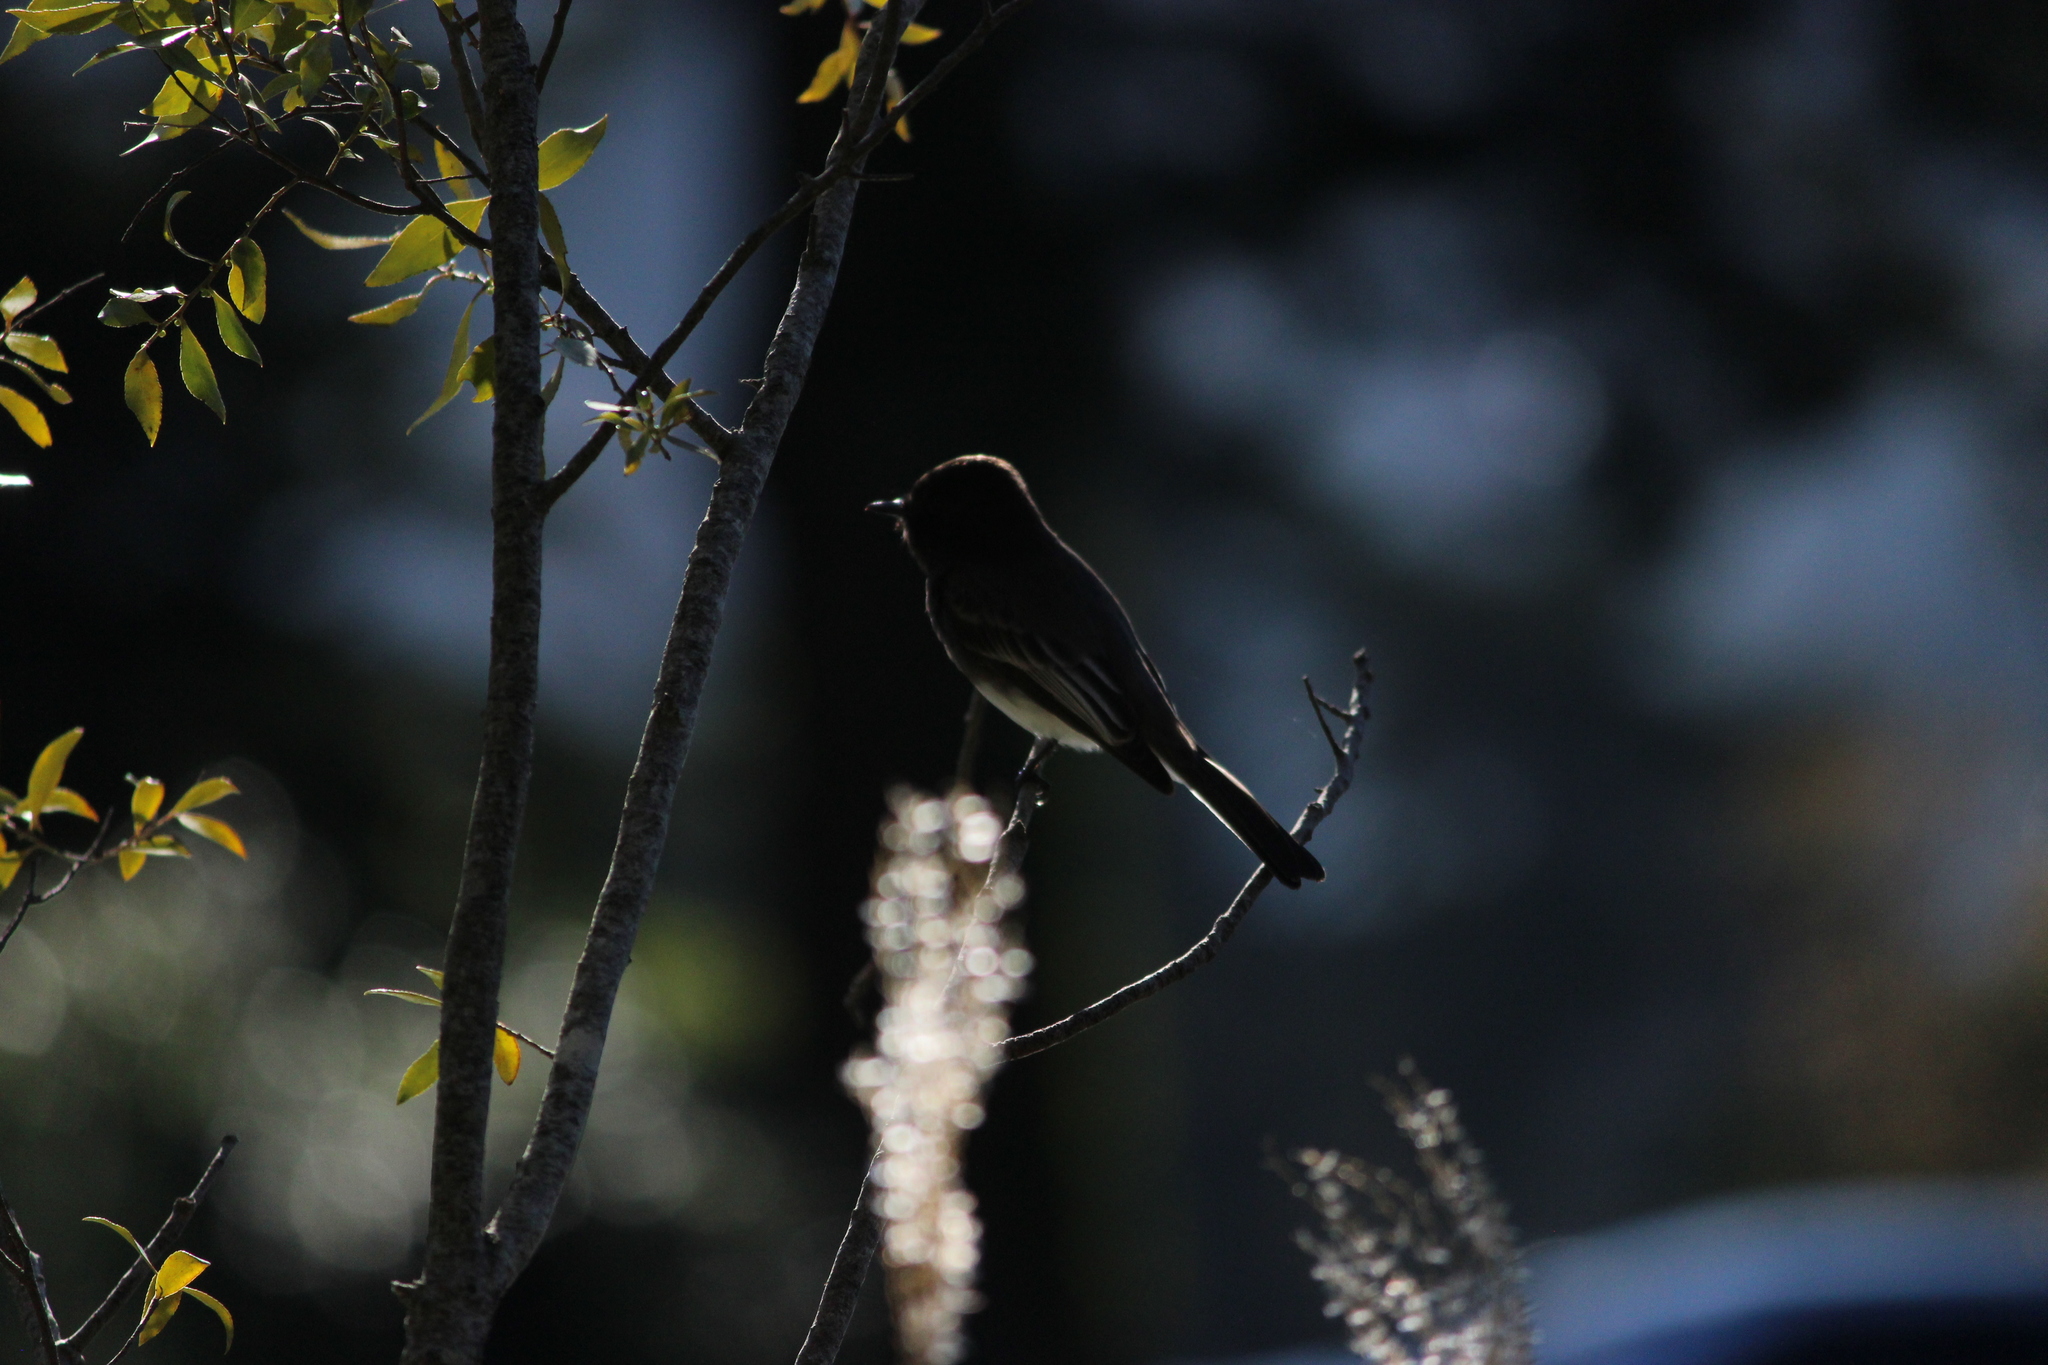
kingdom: Animalia
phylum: Chordata
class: Aves
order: Passeriformes
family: Tyrannidae
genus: Sayornis
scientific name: Sayornis nigricans
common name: Black phoebe
